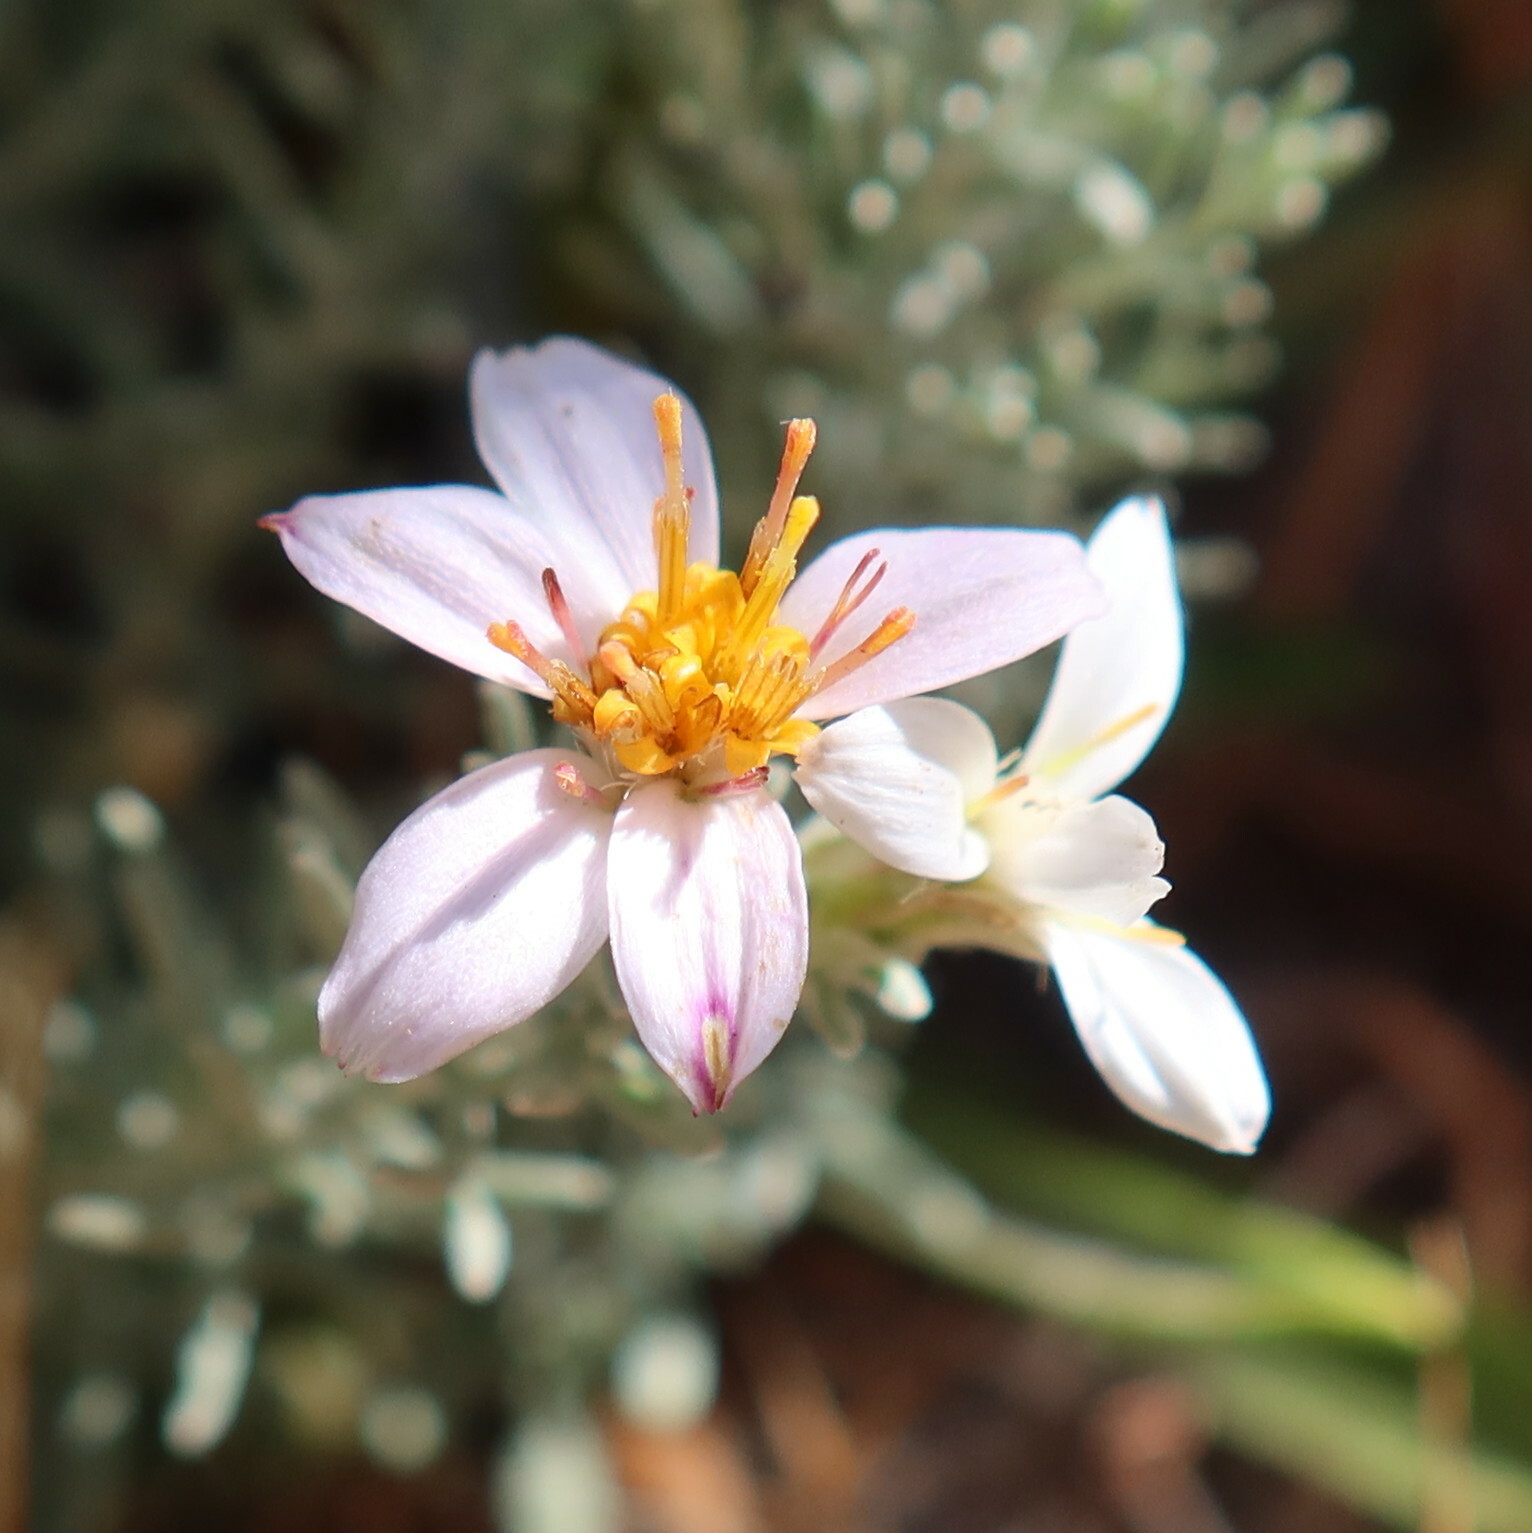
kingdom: Plantae
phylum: Tracheophyta
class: Magnoliopsida
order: Asterales
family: Asteraceae
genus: Printzia
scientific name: Printzia aromatica
